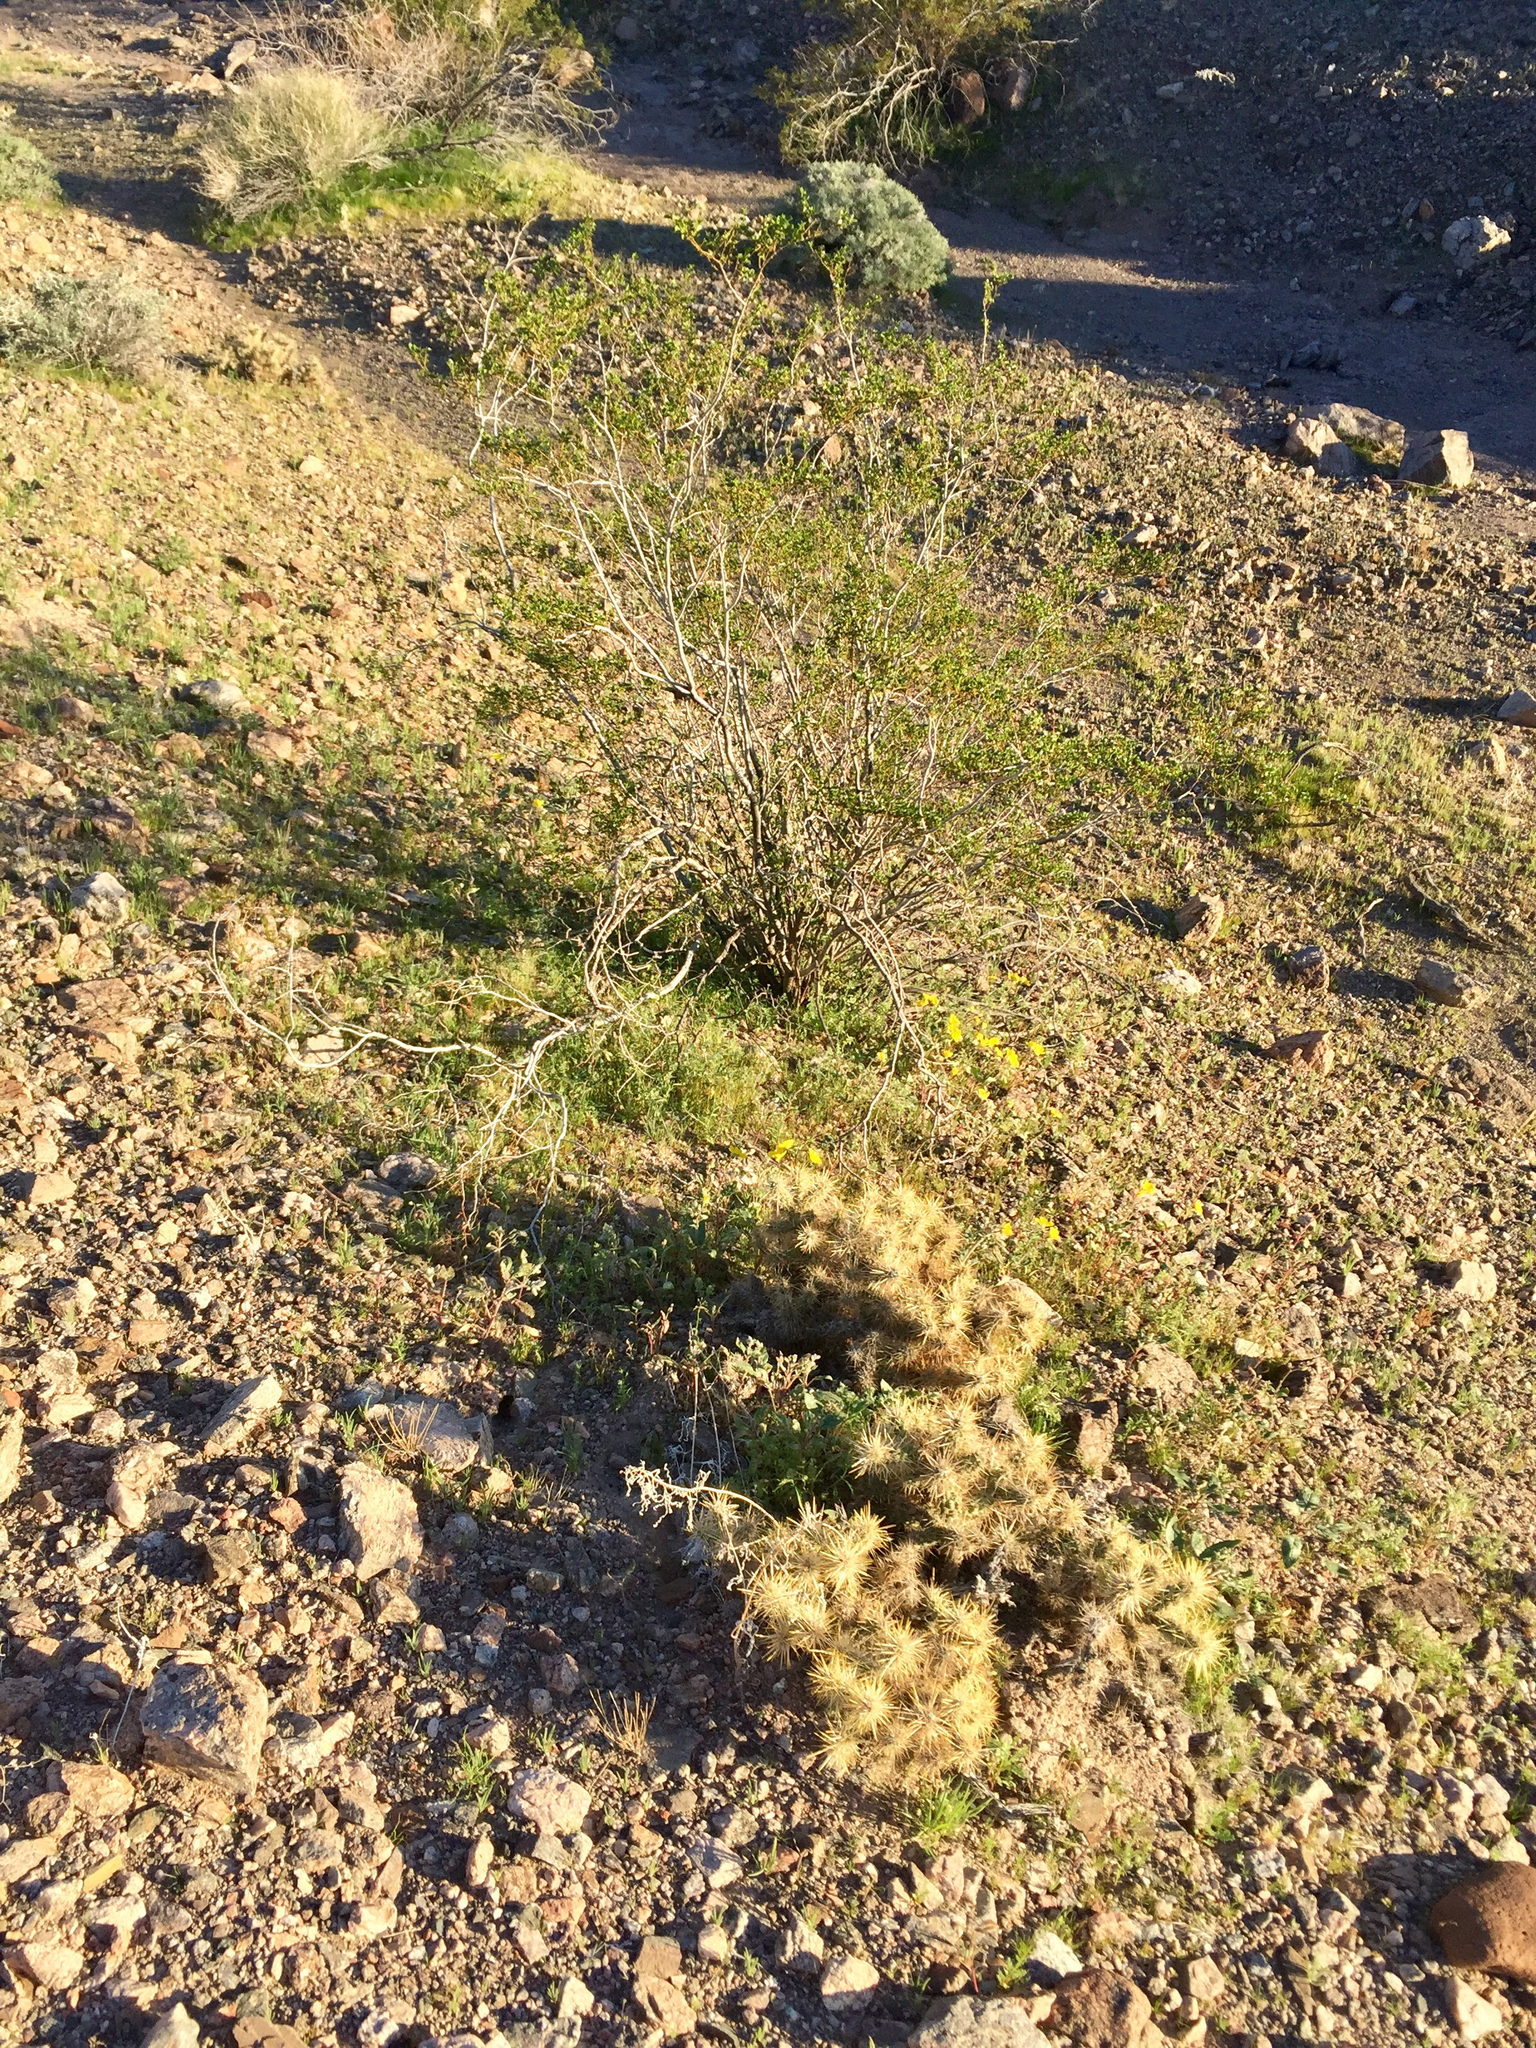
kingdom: Plantae
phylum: Tracheophyta
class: Magnoliopsida
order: Zygophyllales
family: Zygophyllaceae
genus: Larrea
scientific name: Larrea tridentata
